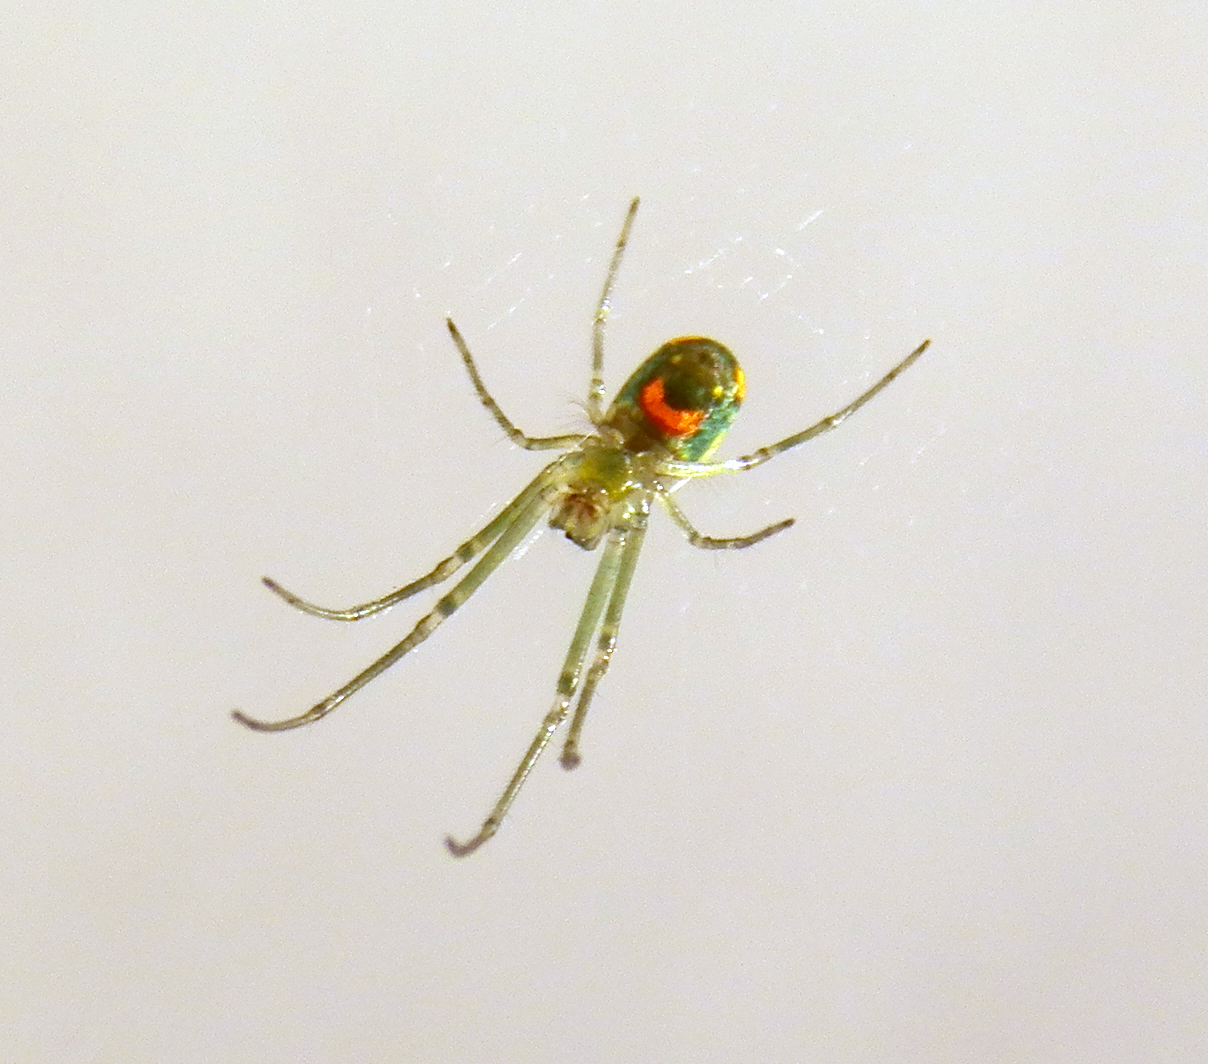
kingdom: Animalia
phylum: Arthropoda
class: Arachnida
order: Araneae
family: Tetragnathidae
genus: Leucauge
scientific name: Leucauge argyrobapta
